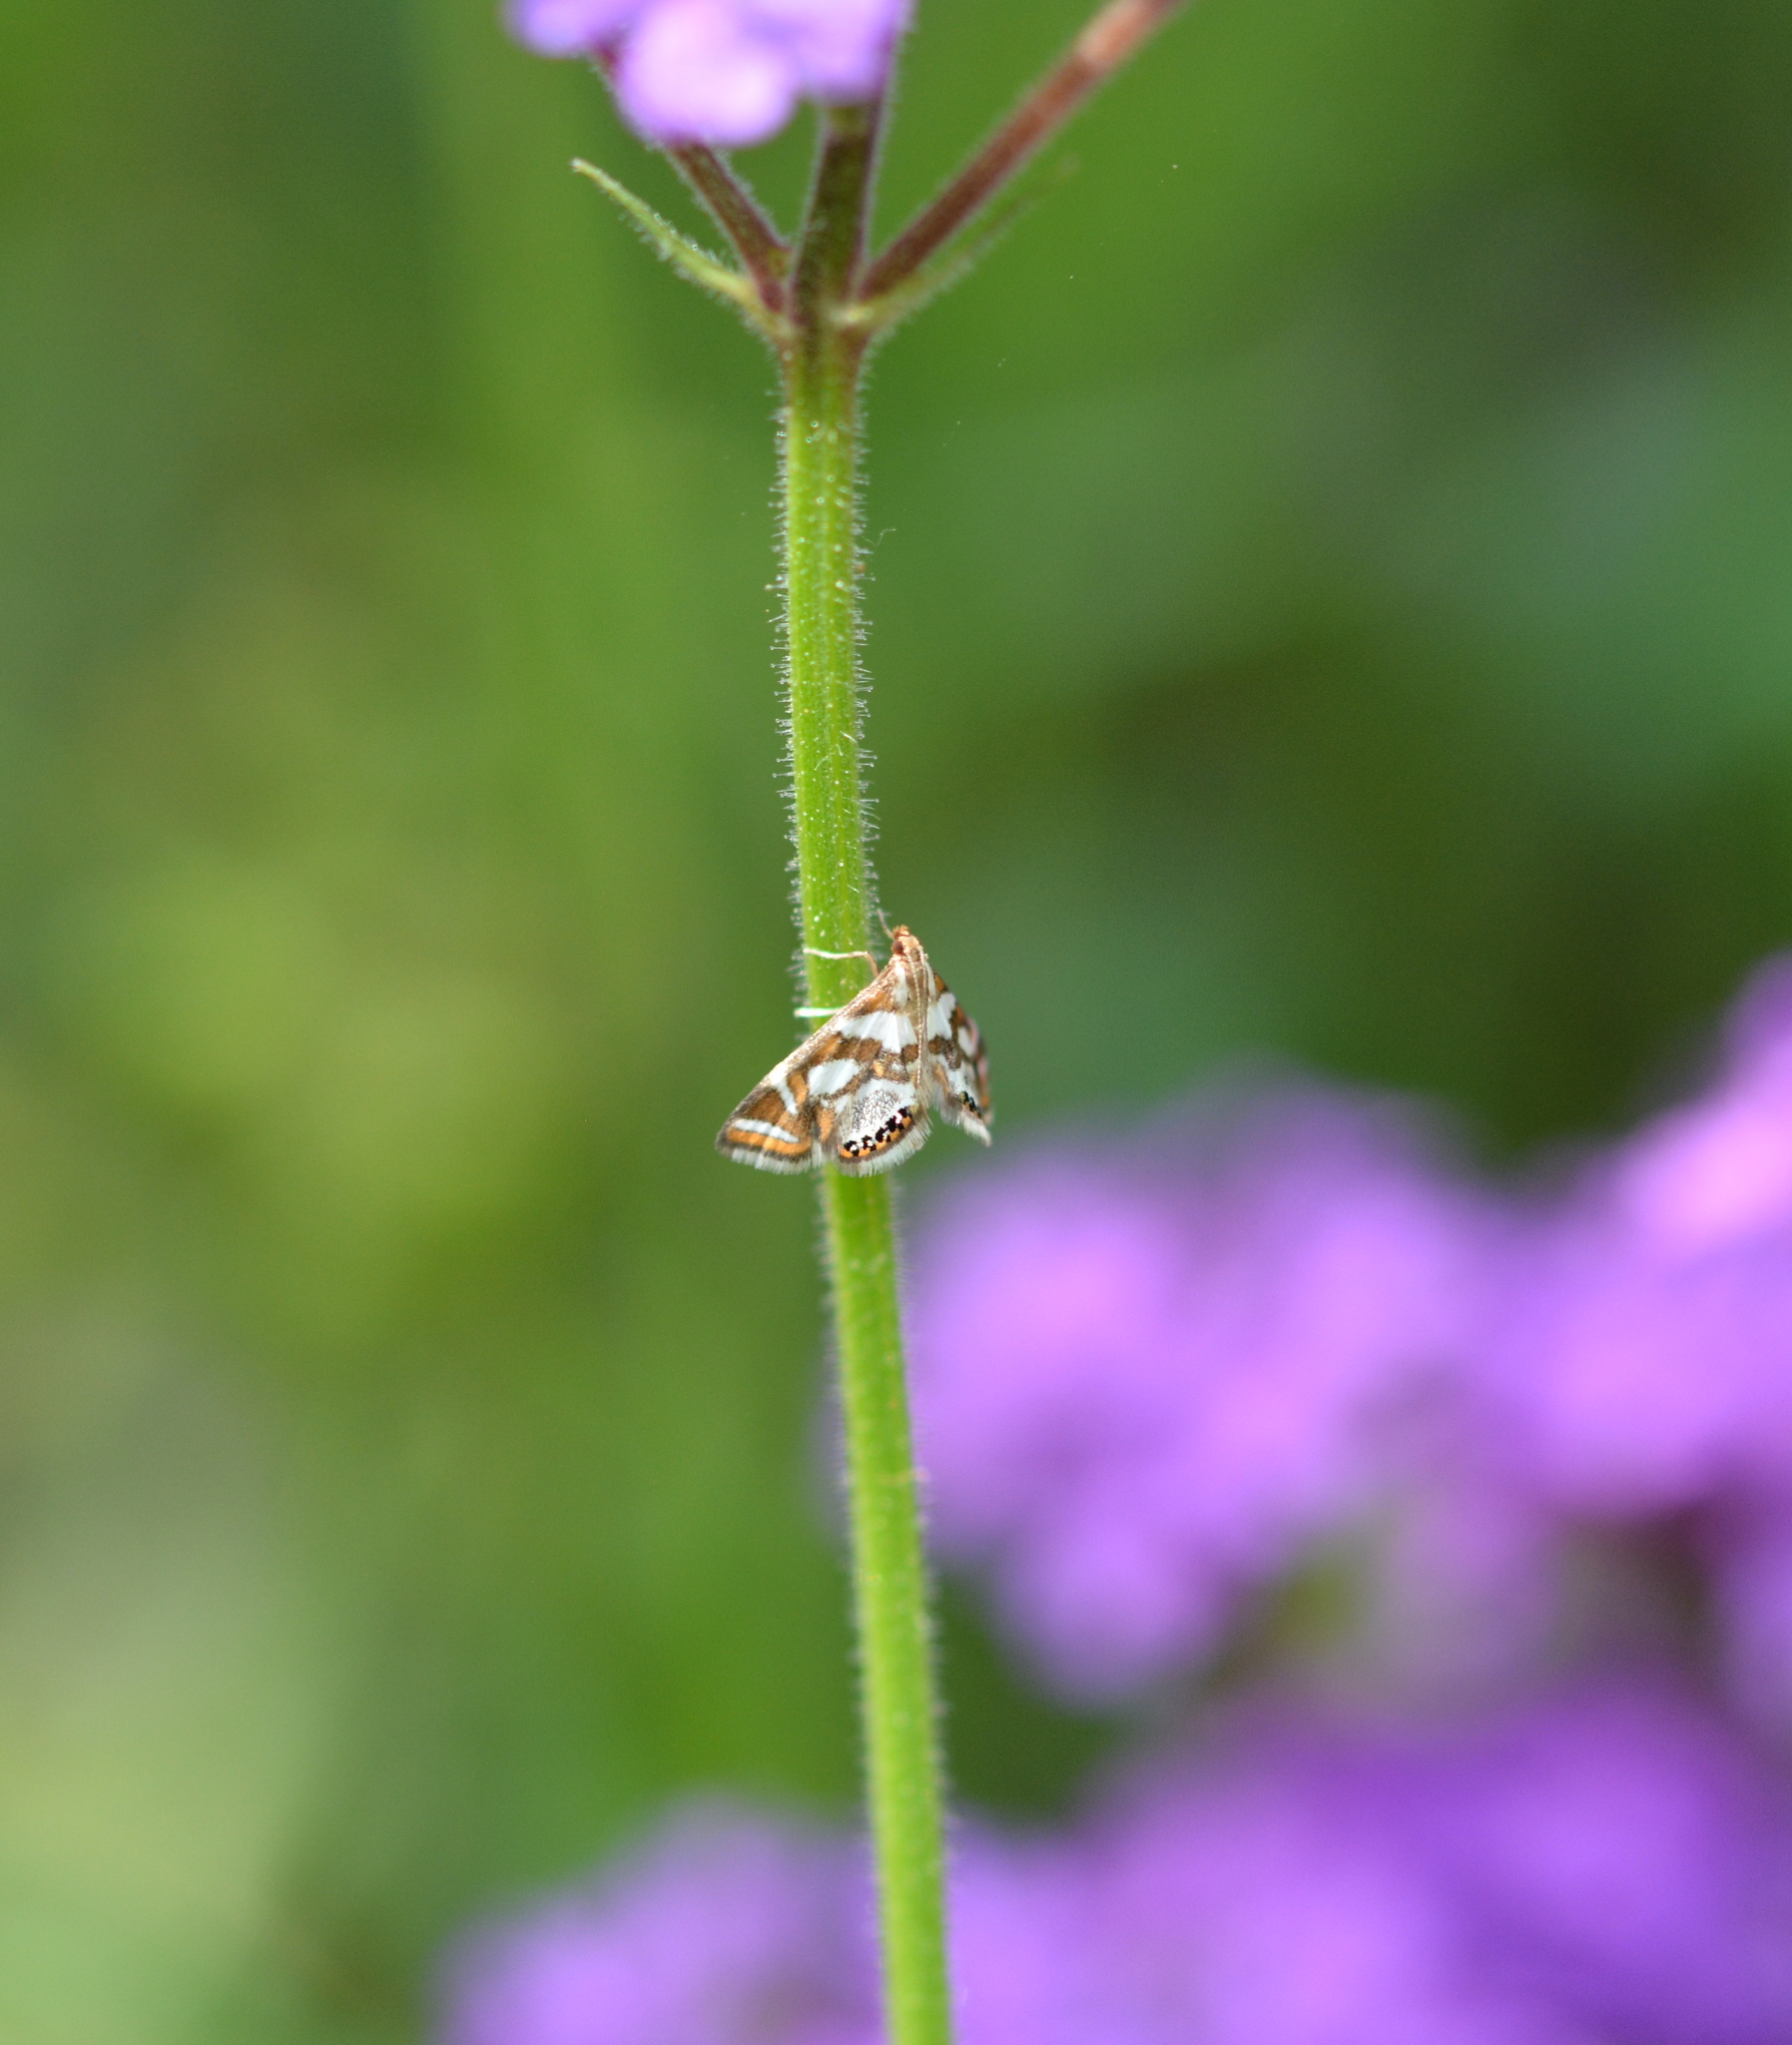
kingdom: Animalia
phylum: Arthropoda
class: Insecta
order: Lepidoptera
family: Crambidae
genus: Chrysendeton
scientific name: Chrysendeton medicinalis
